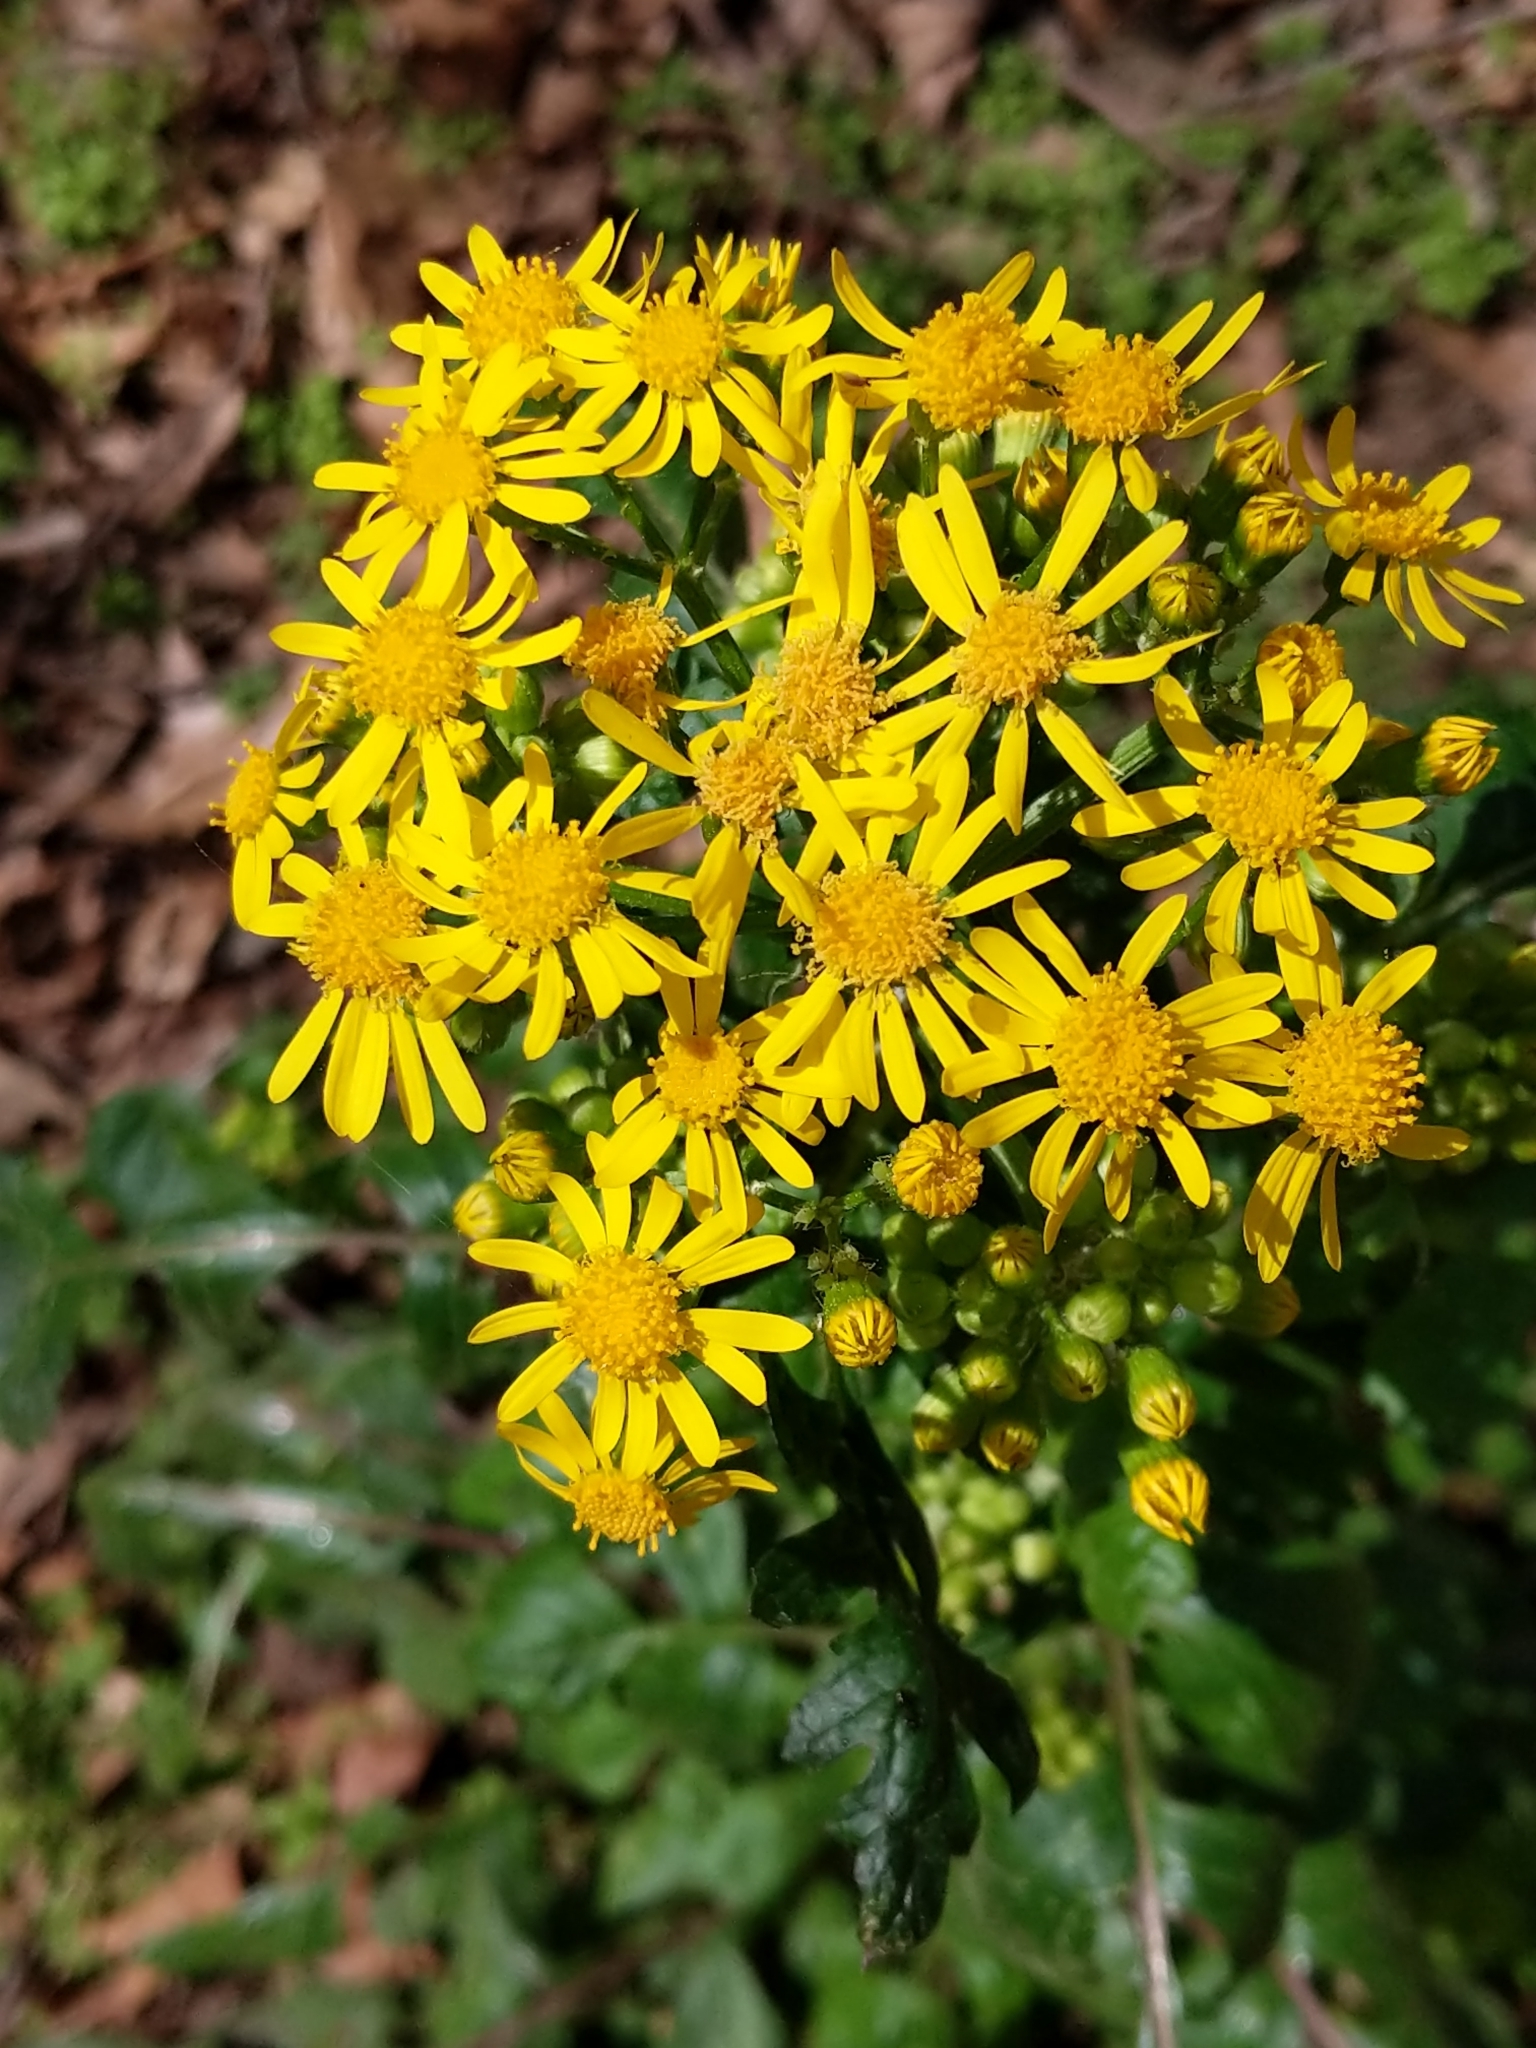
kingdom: Plantae
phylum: Tracheophyta
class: Magnoliopsida
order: Asterales
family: Asteraceae
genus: Packera
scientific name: Packera glabella
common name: Butterweed
